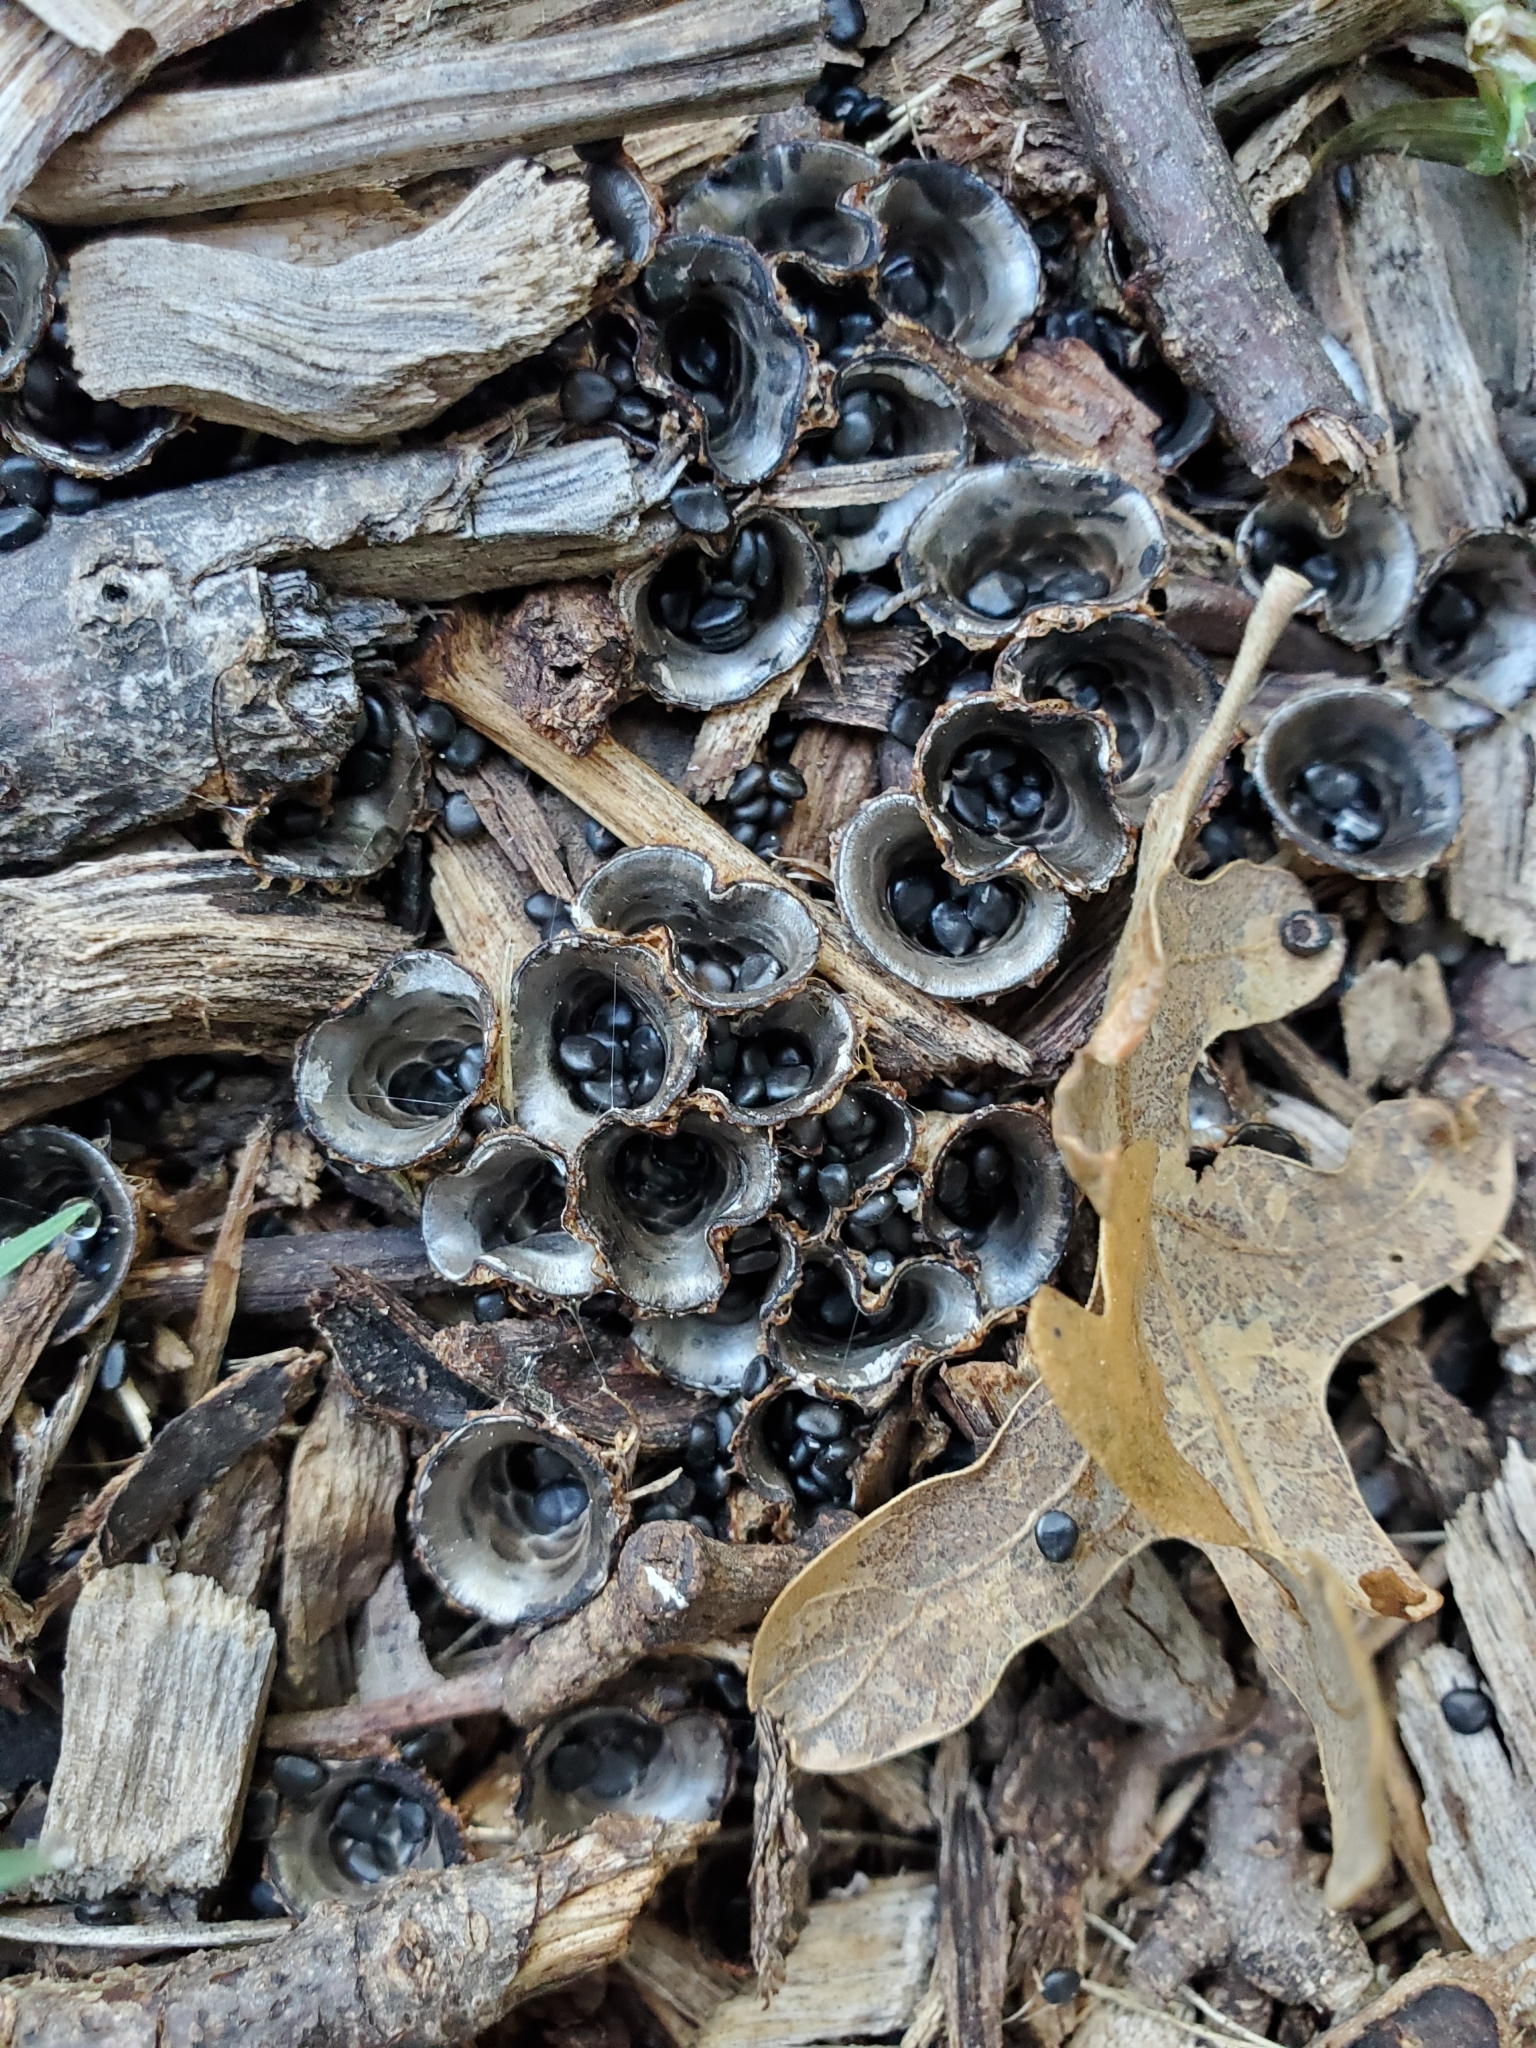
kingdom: Fungi
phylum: Basidiomycota
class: Agaricomycetes
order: Agaricales
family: Agaricaceae
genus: Cyathus
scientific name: Cyathus stercoreus
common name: Dung bird's nest
